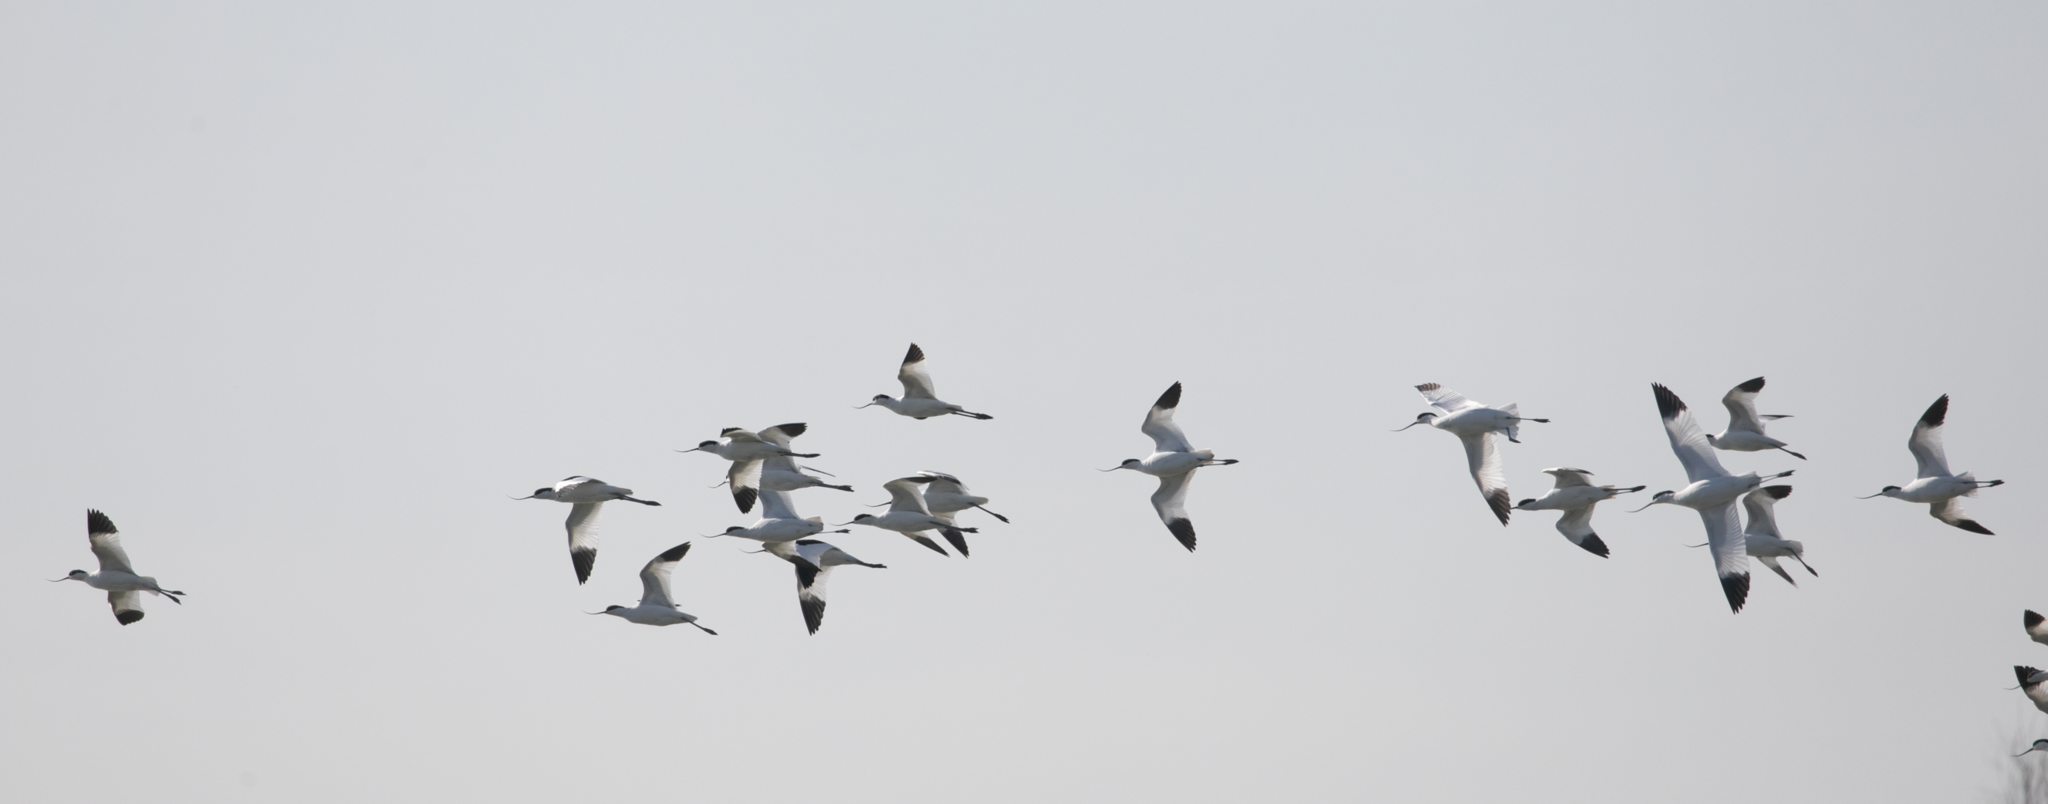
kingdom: Animalia
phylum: Chordata
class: Aves
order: Charadriiformes
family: Recurvirostridae
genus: Recurvirostra
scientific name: Recurvirostra avosetta
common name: Pied avocet
